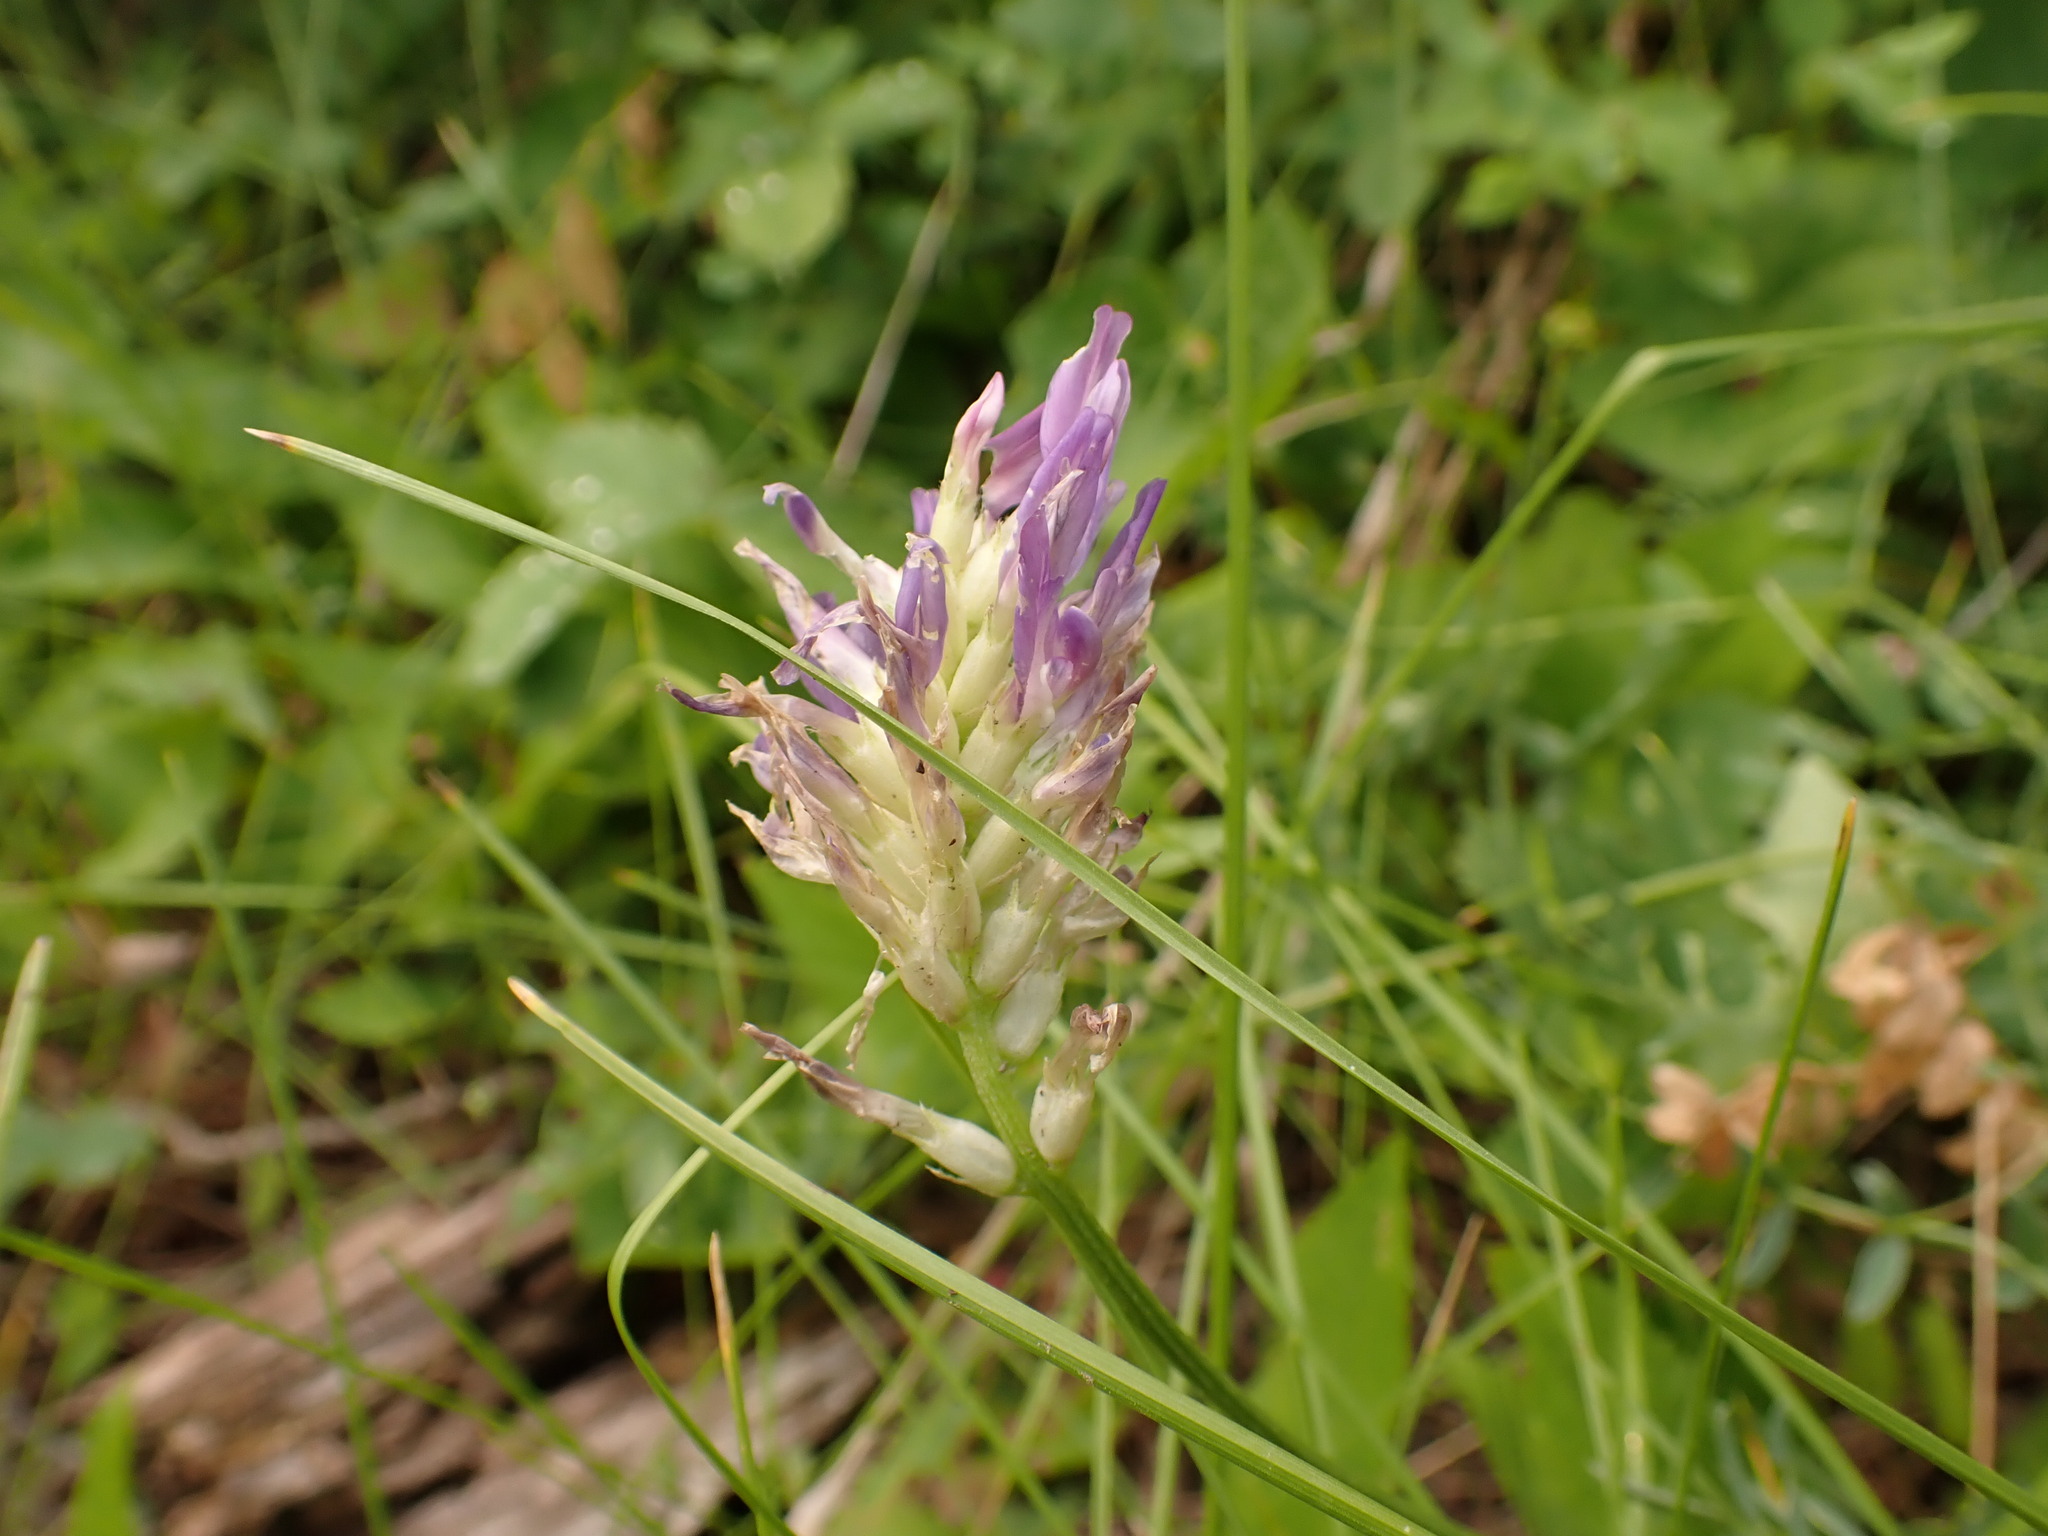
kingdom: Plantae
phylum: Tracheophyta
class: Magnoliopsida
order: Fabales
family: Fabaceae
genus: Astragalus
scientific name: Astragalus laxmannii
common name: Laxmann's milk-vetch
